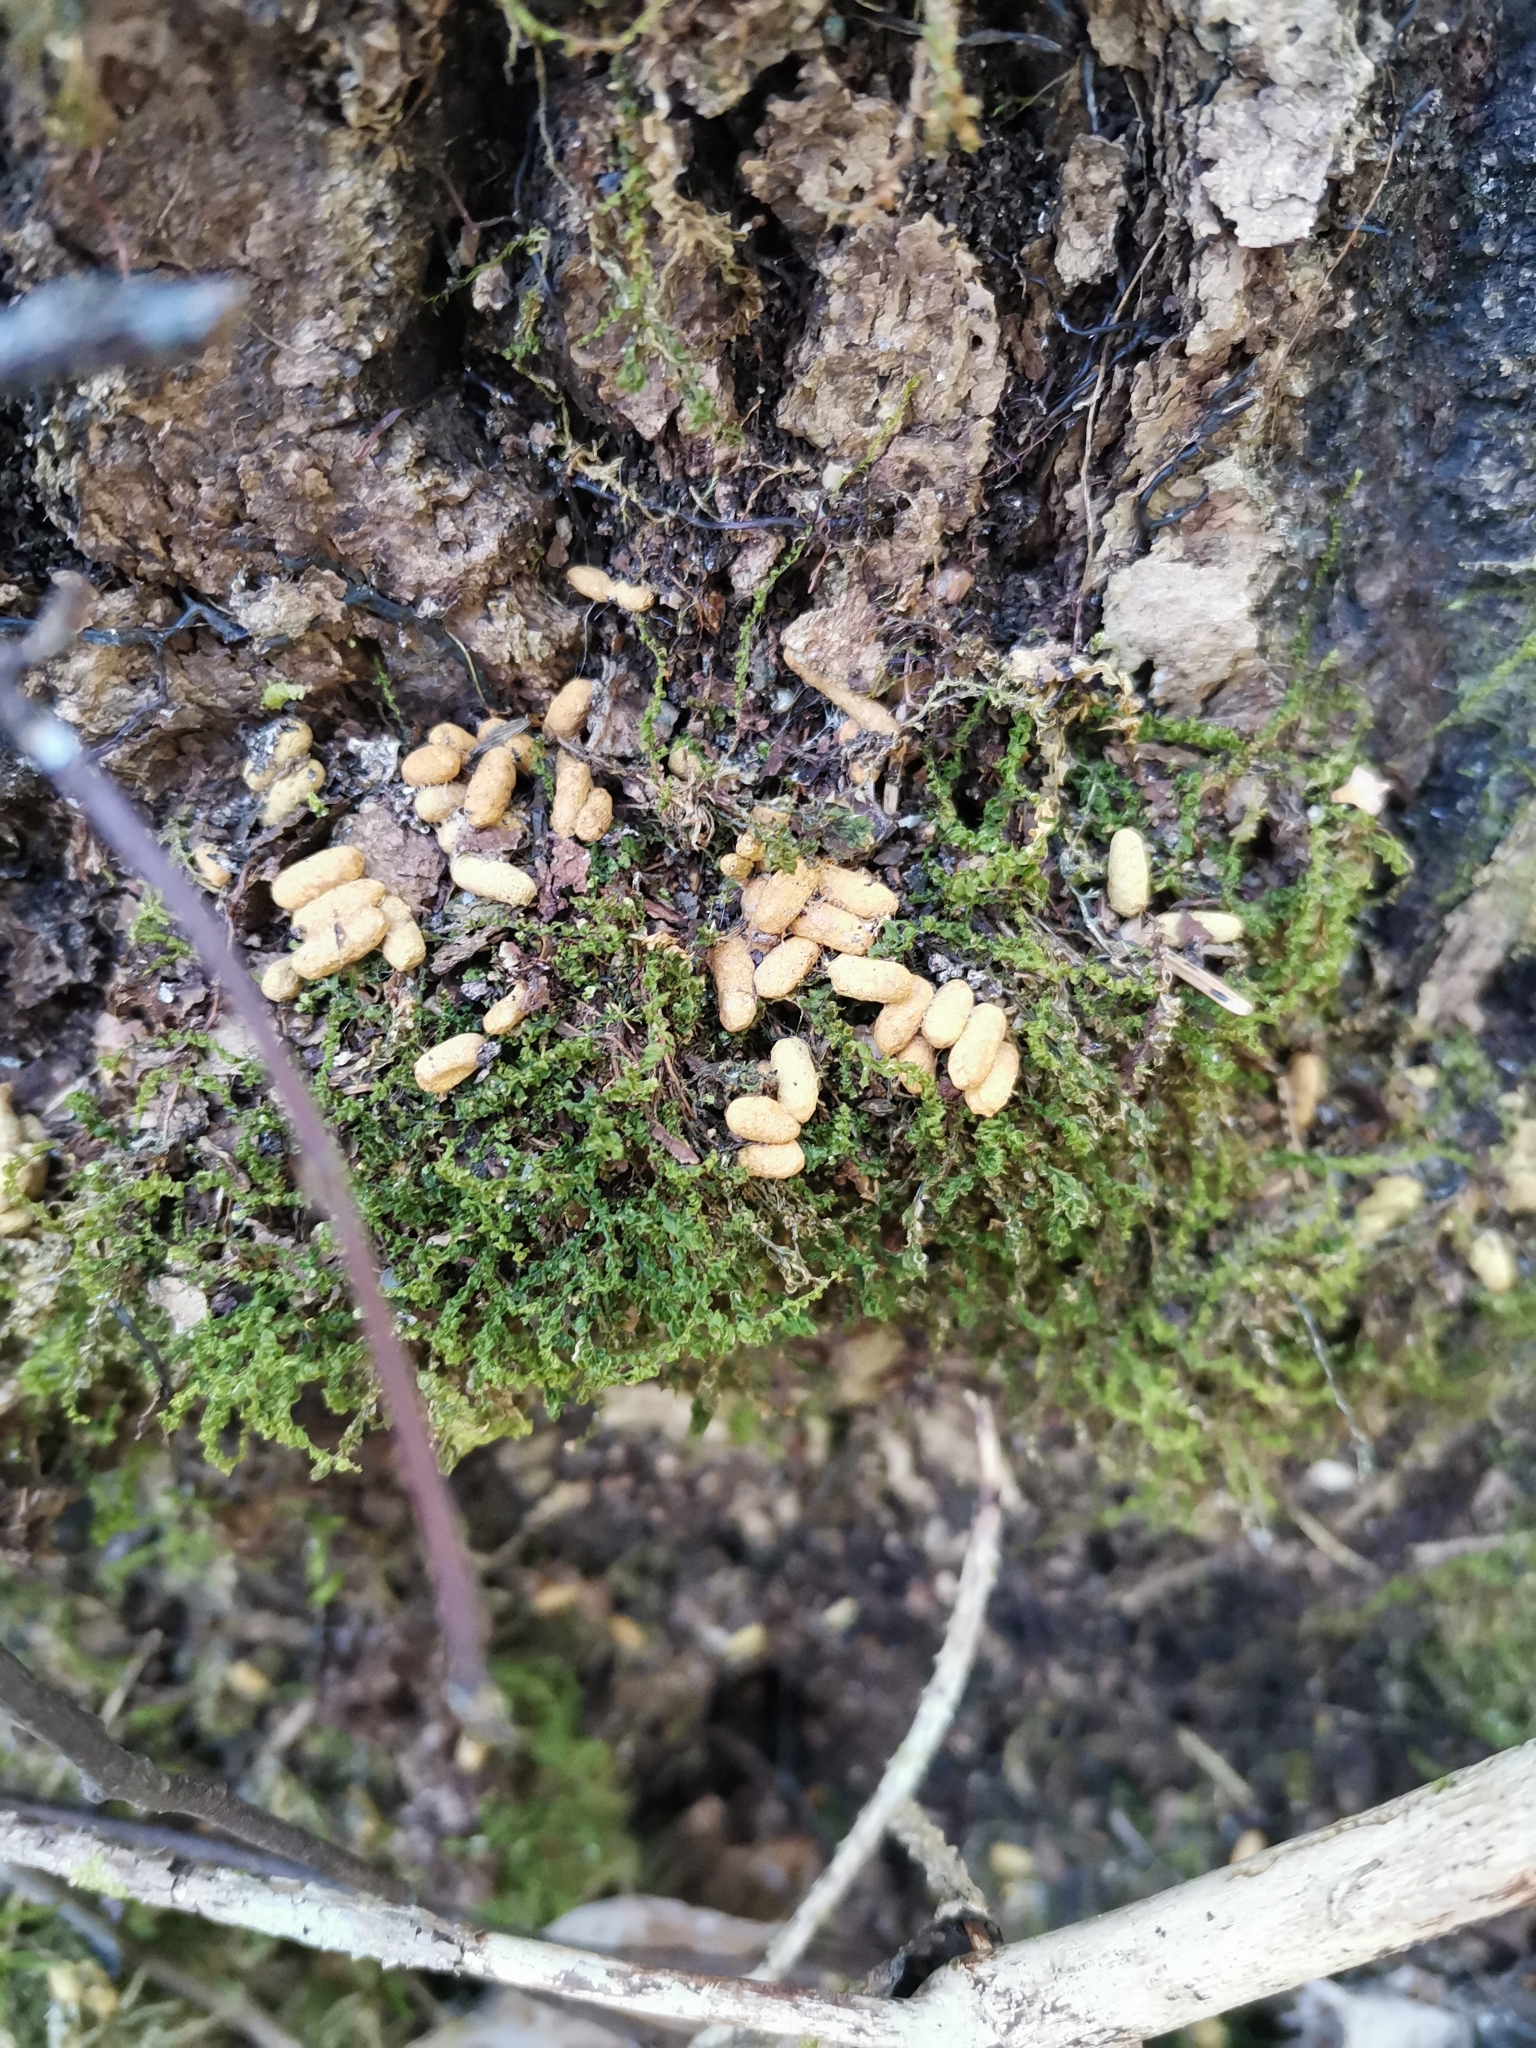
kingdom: Animalia
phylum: Chordata
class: Mammalia
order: Rodentia
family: Sciuridae
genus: Pteromys
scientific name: Pteromys volans
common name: Siberian flying squirrel
